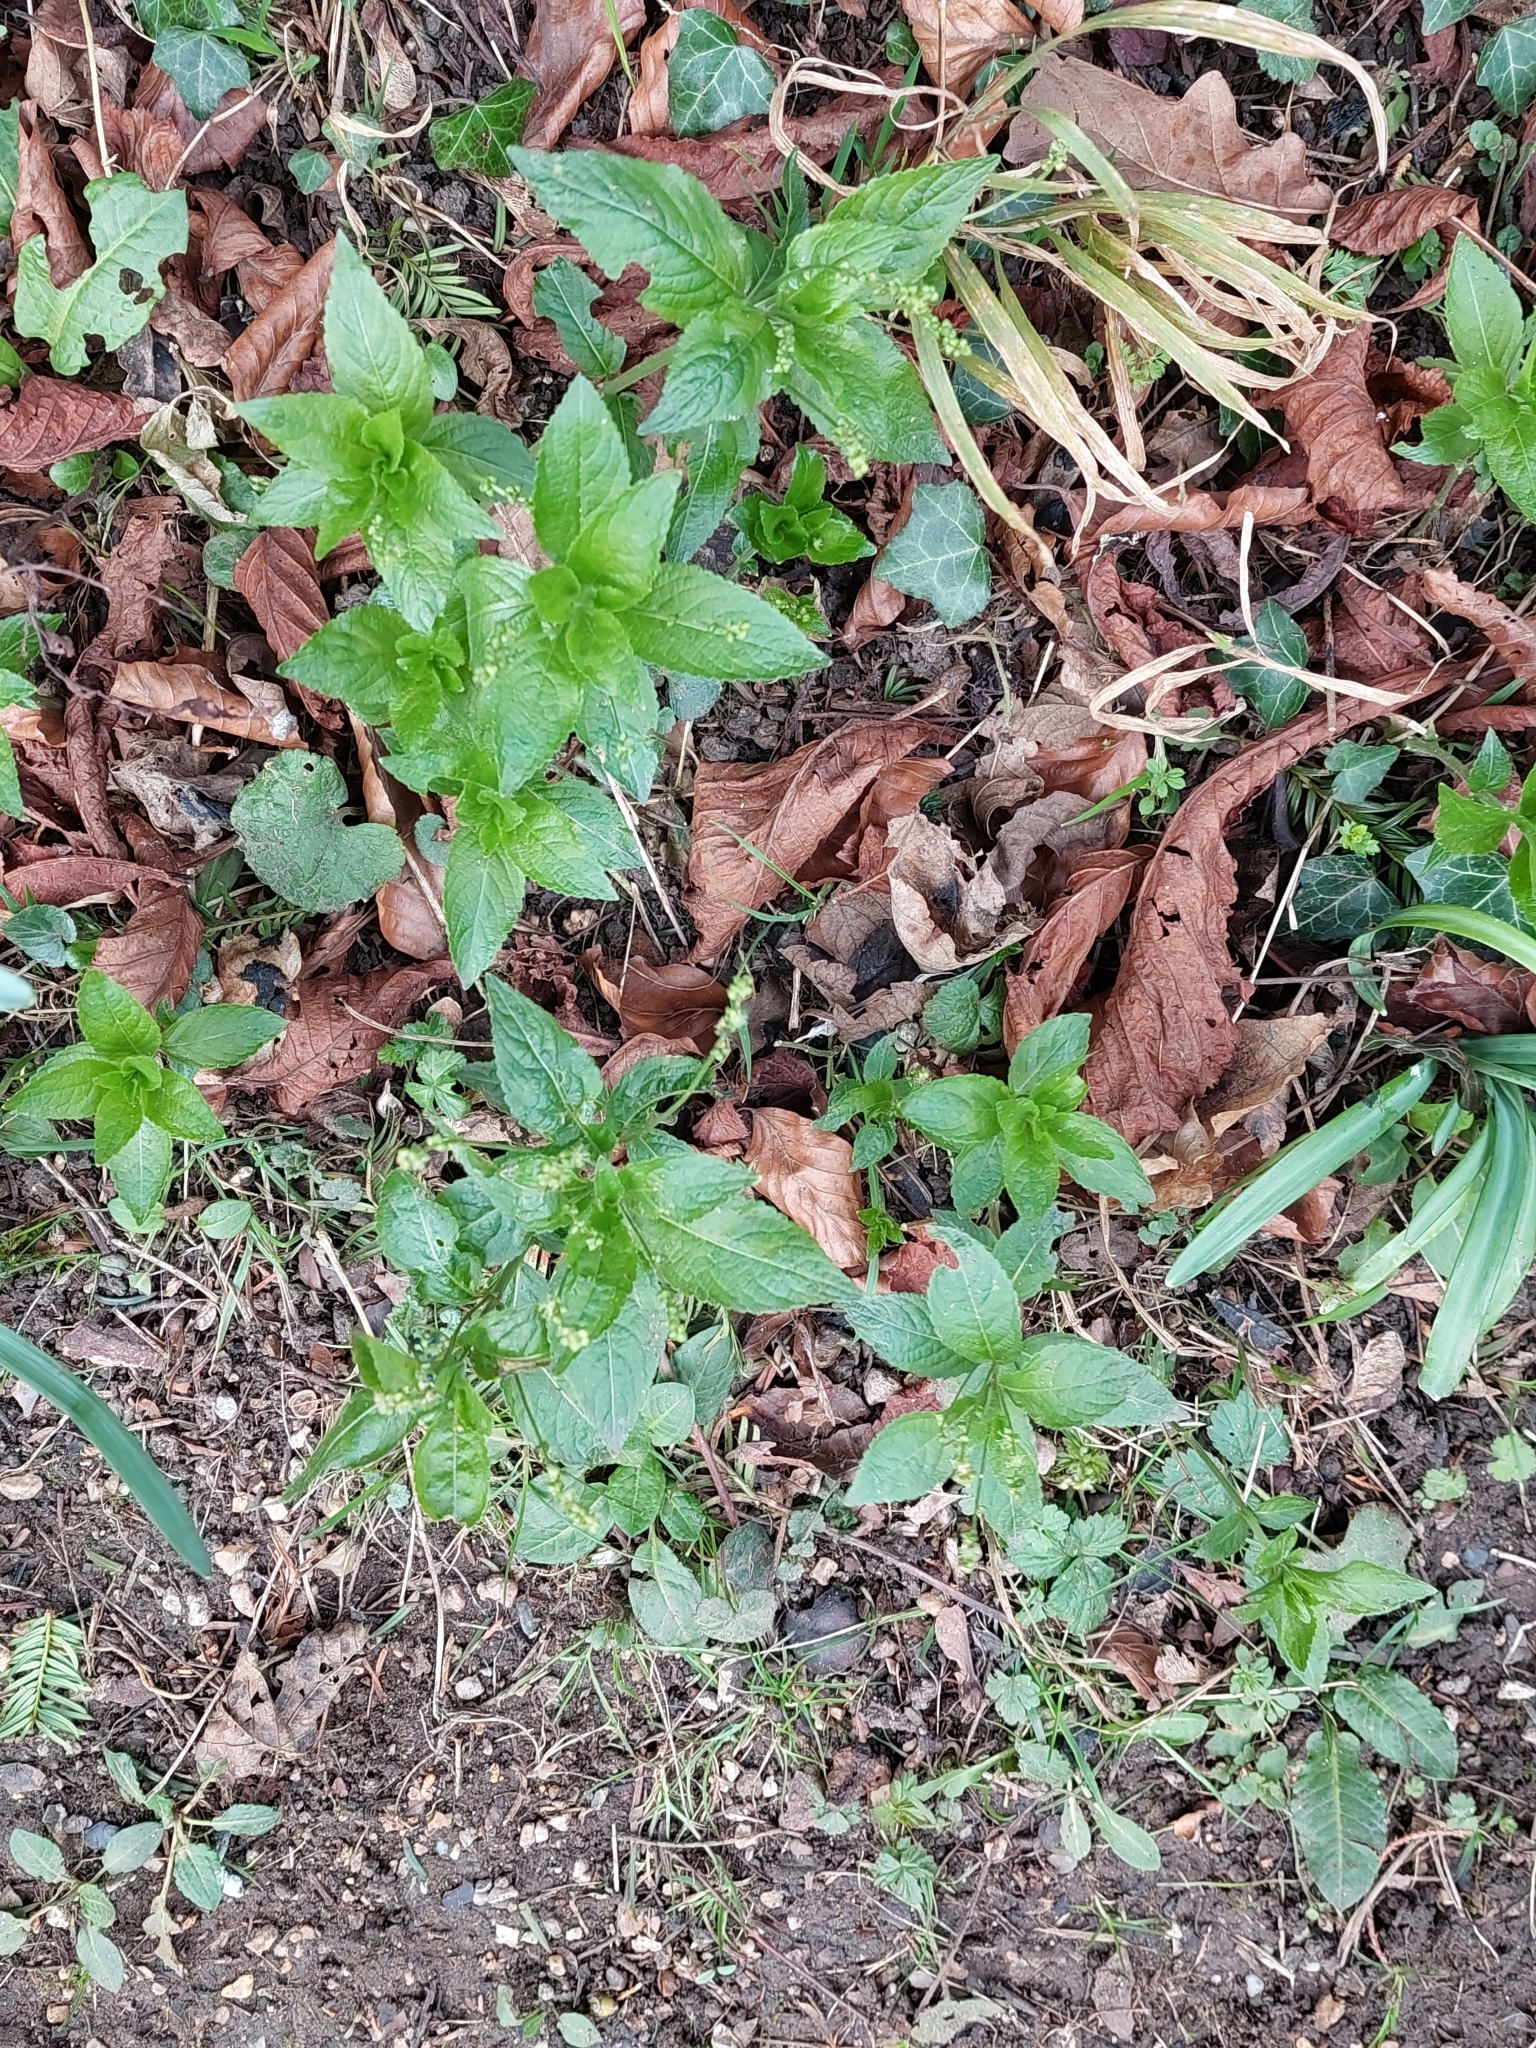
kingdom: Plantae
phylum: Tracheophyta
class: Magnoliopsida
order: Malpighiales
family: Euphorbiaceae
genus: Mercurialis
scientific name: Mercurialis perennis
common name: Dog mercury
